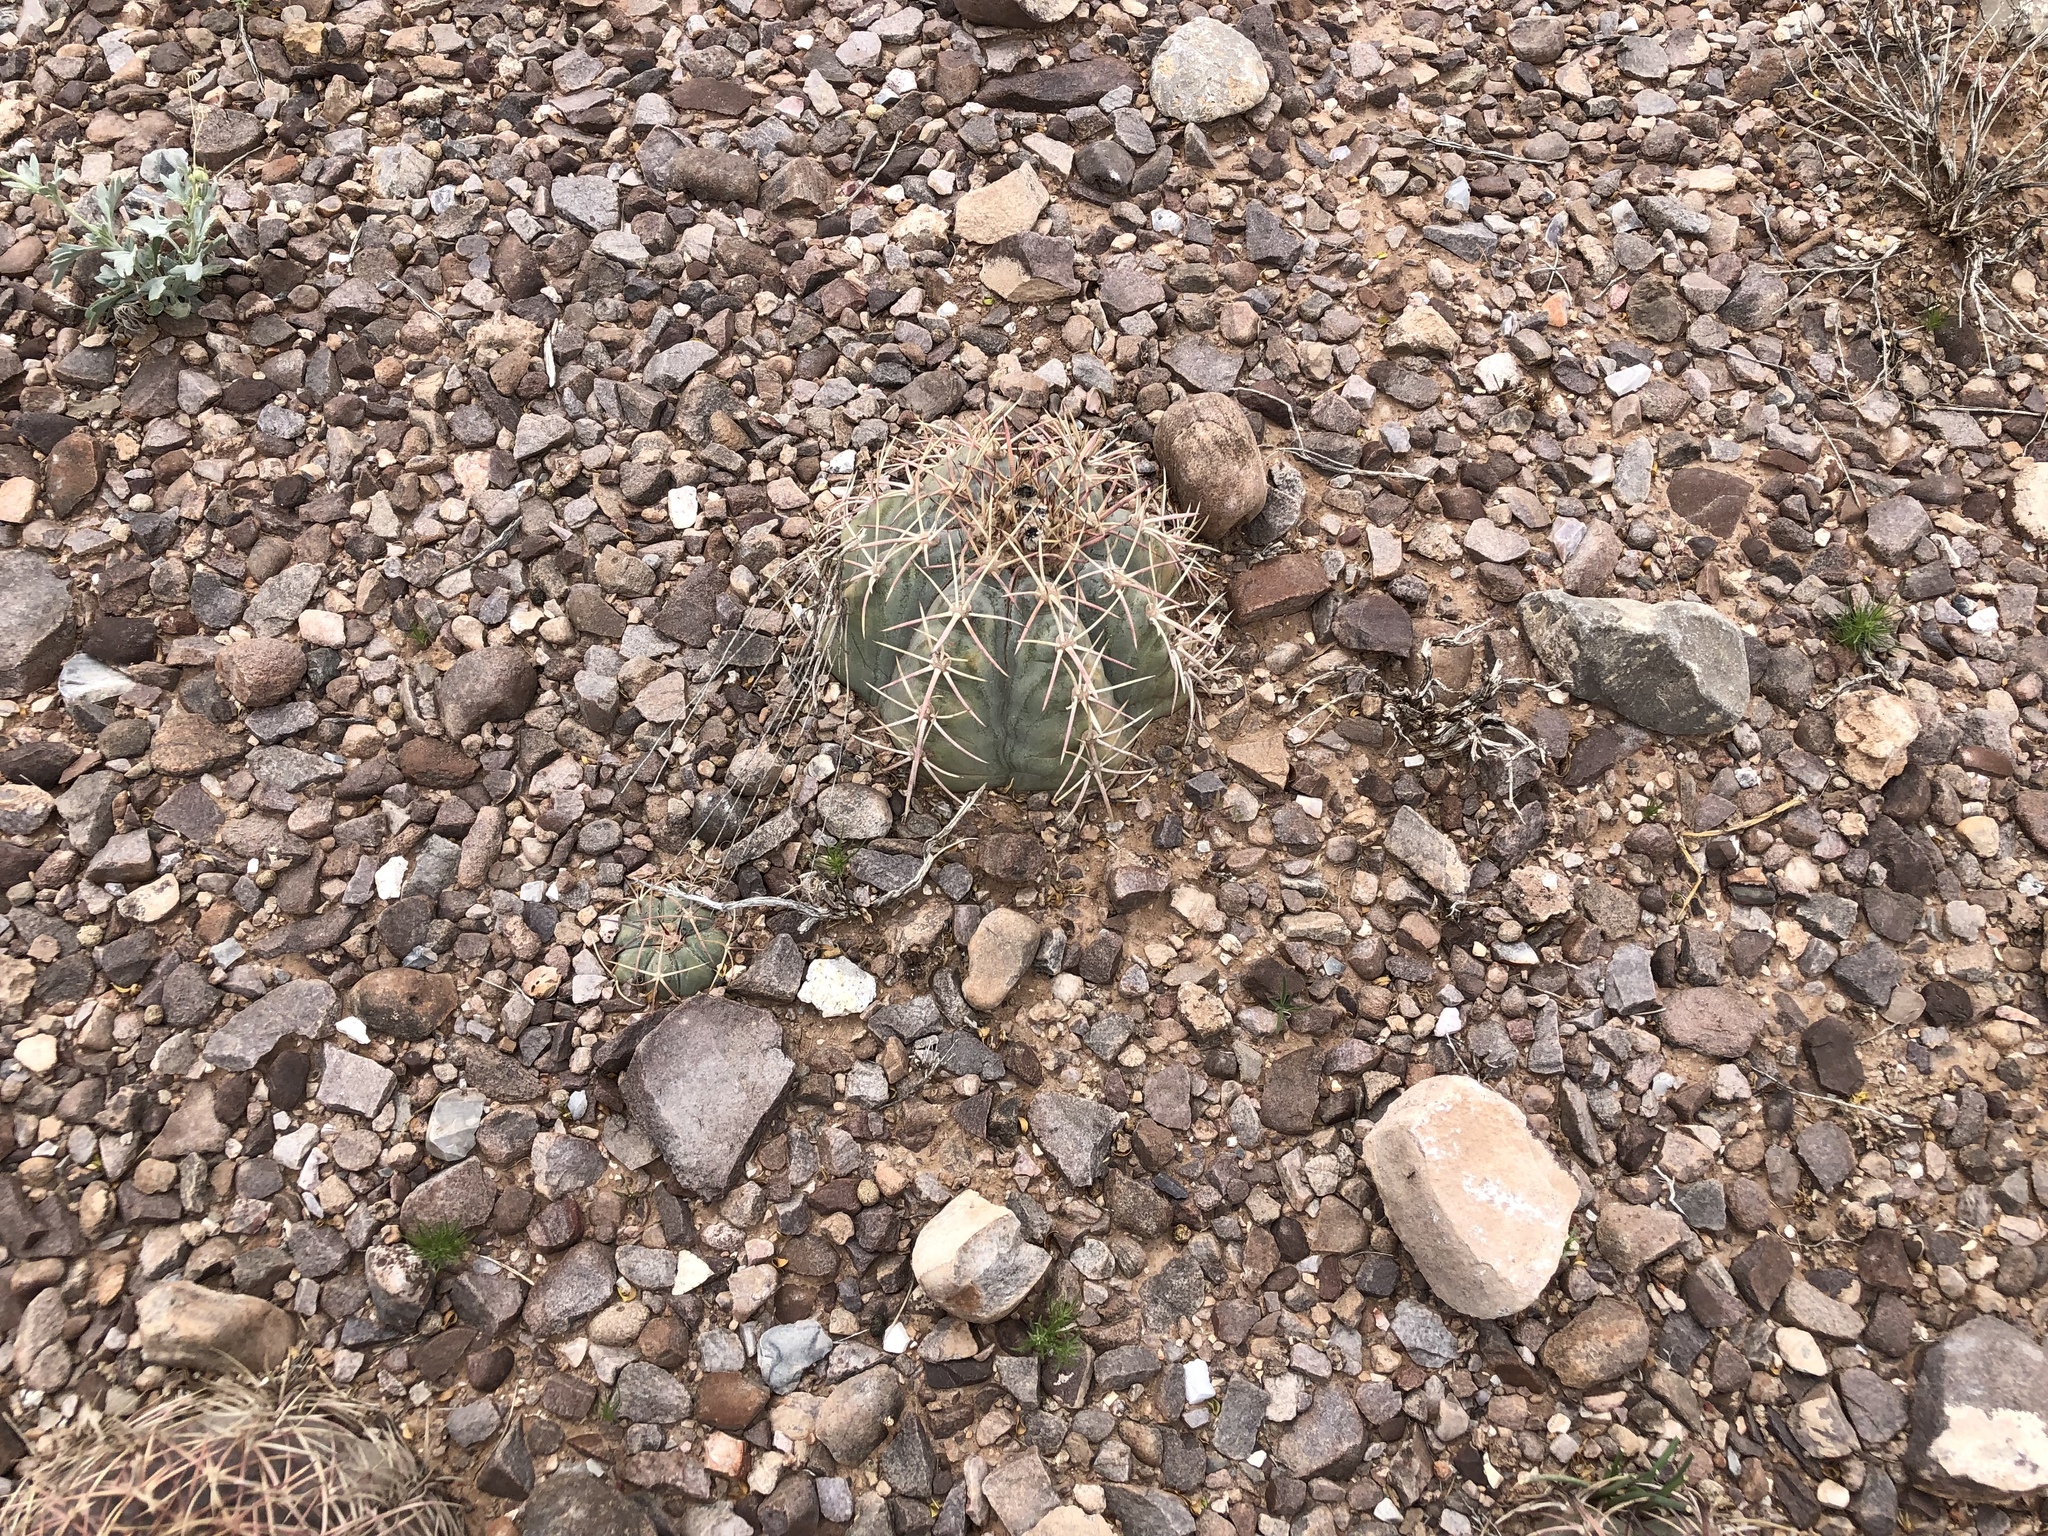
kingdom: Plantae
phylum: Tracheophyta
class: Magnoliopsida
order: Caryophyllales
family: Cactaceae
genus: Echinocactus
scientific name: Echinocactus horizonthalonius
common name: Devilshead
